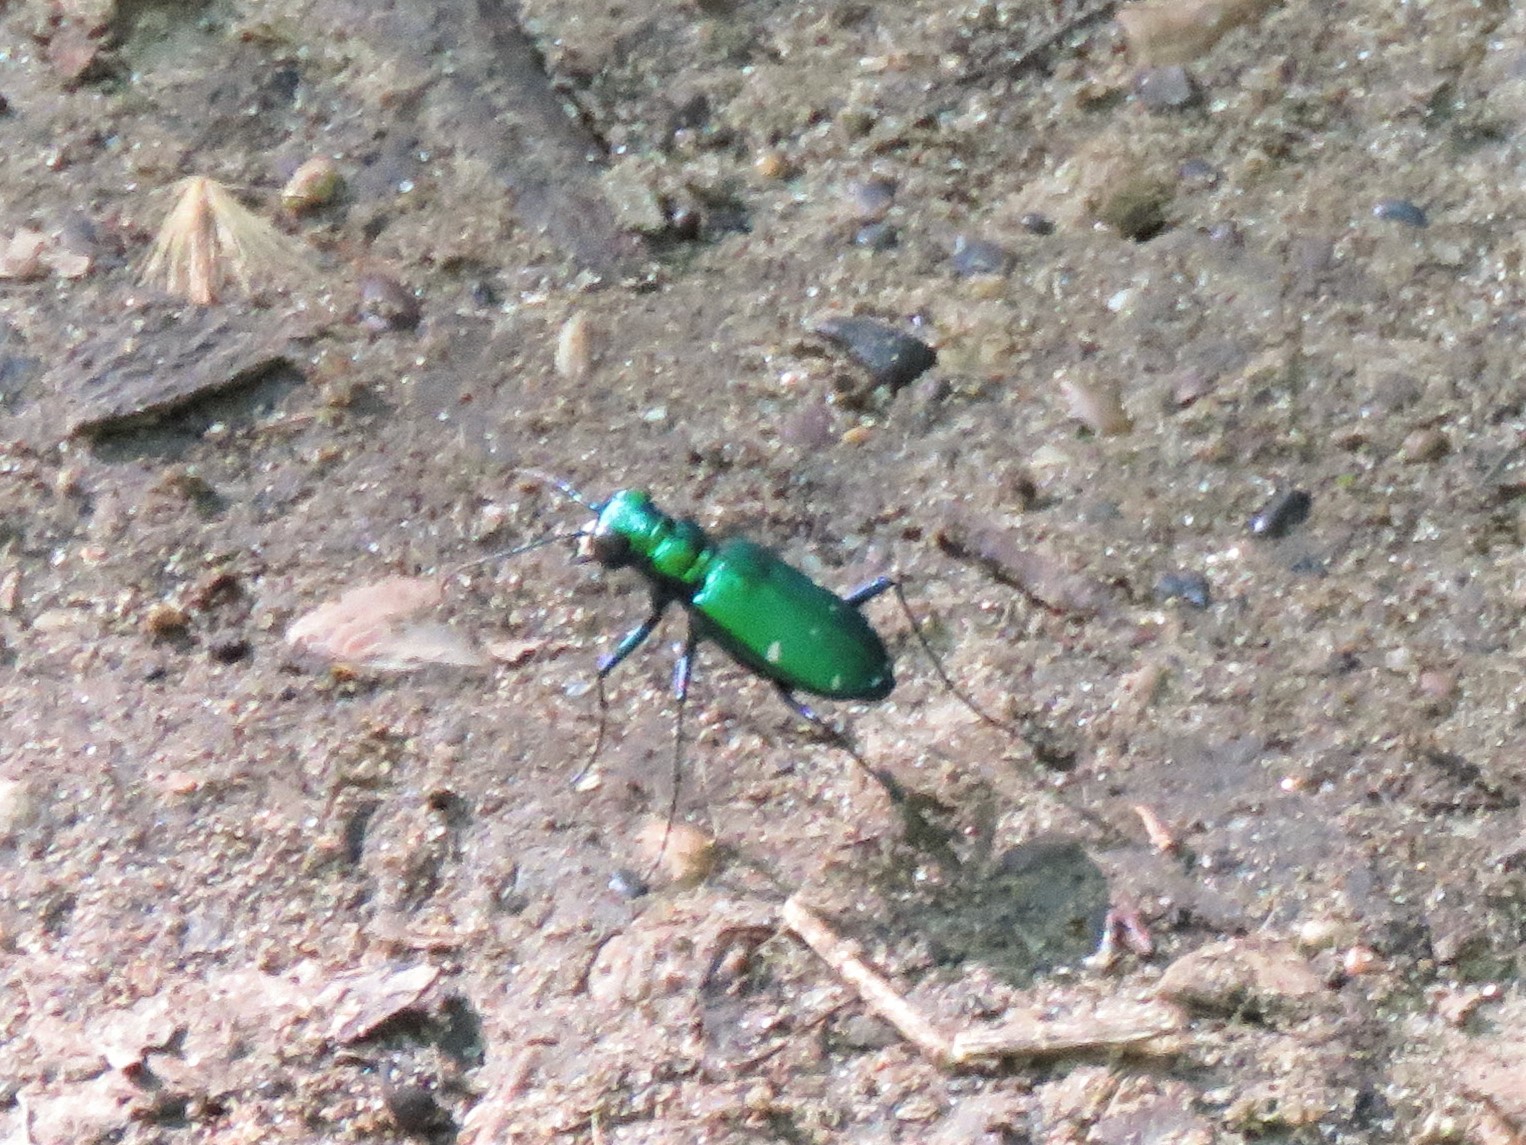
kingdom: Animalia
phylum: Arthropoda
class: Insecta
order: Coleoptera
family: Carabidae
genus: Cicindela
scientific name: Cicindela sexguttata
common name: Six-spotted tiger beetle
